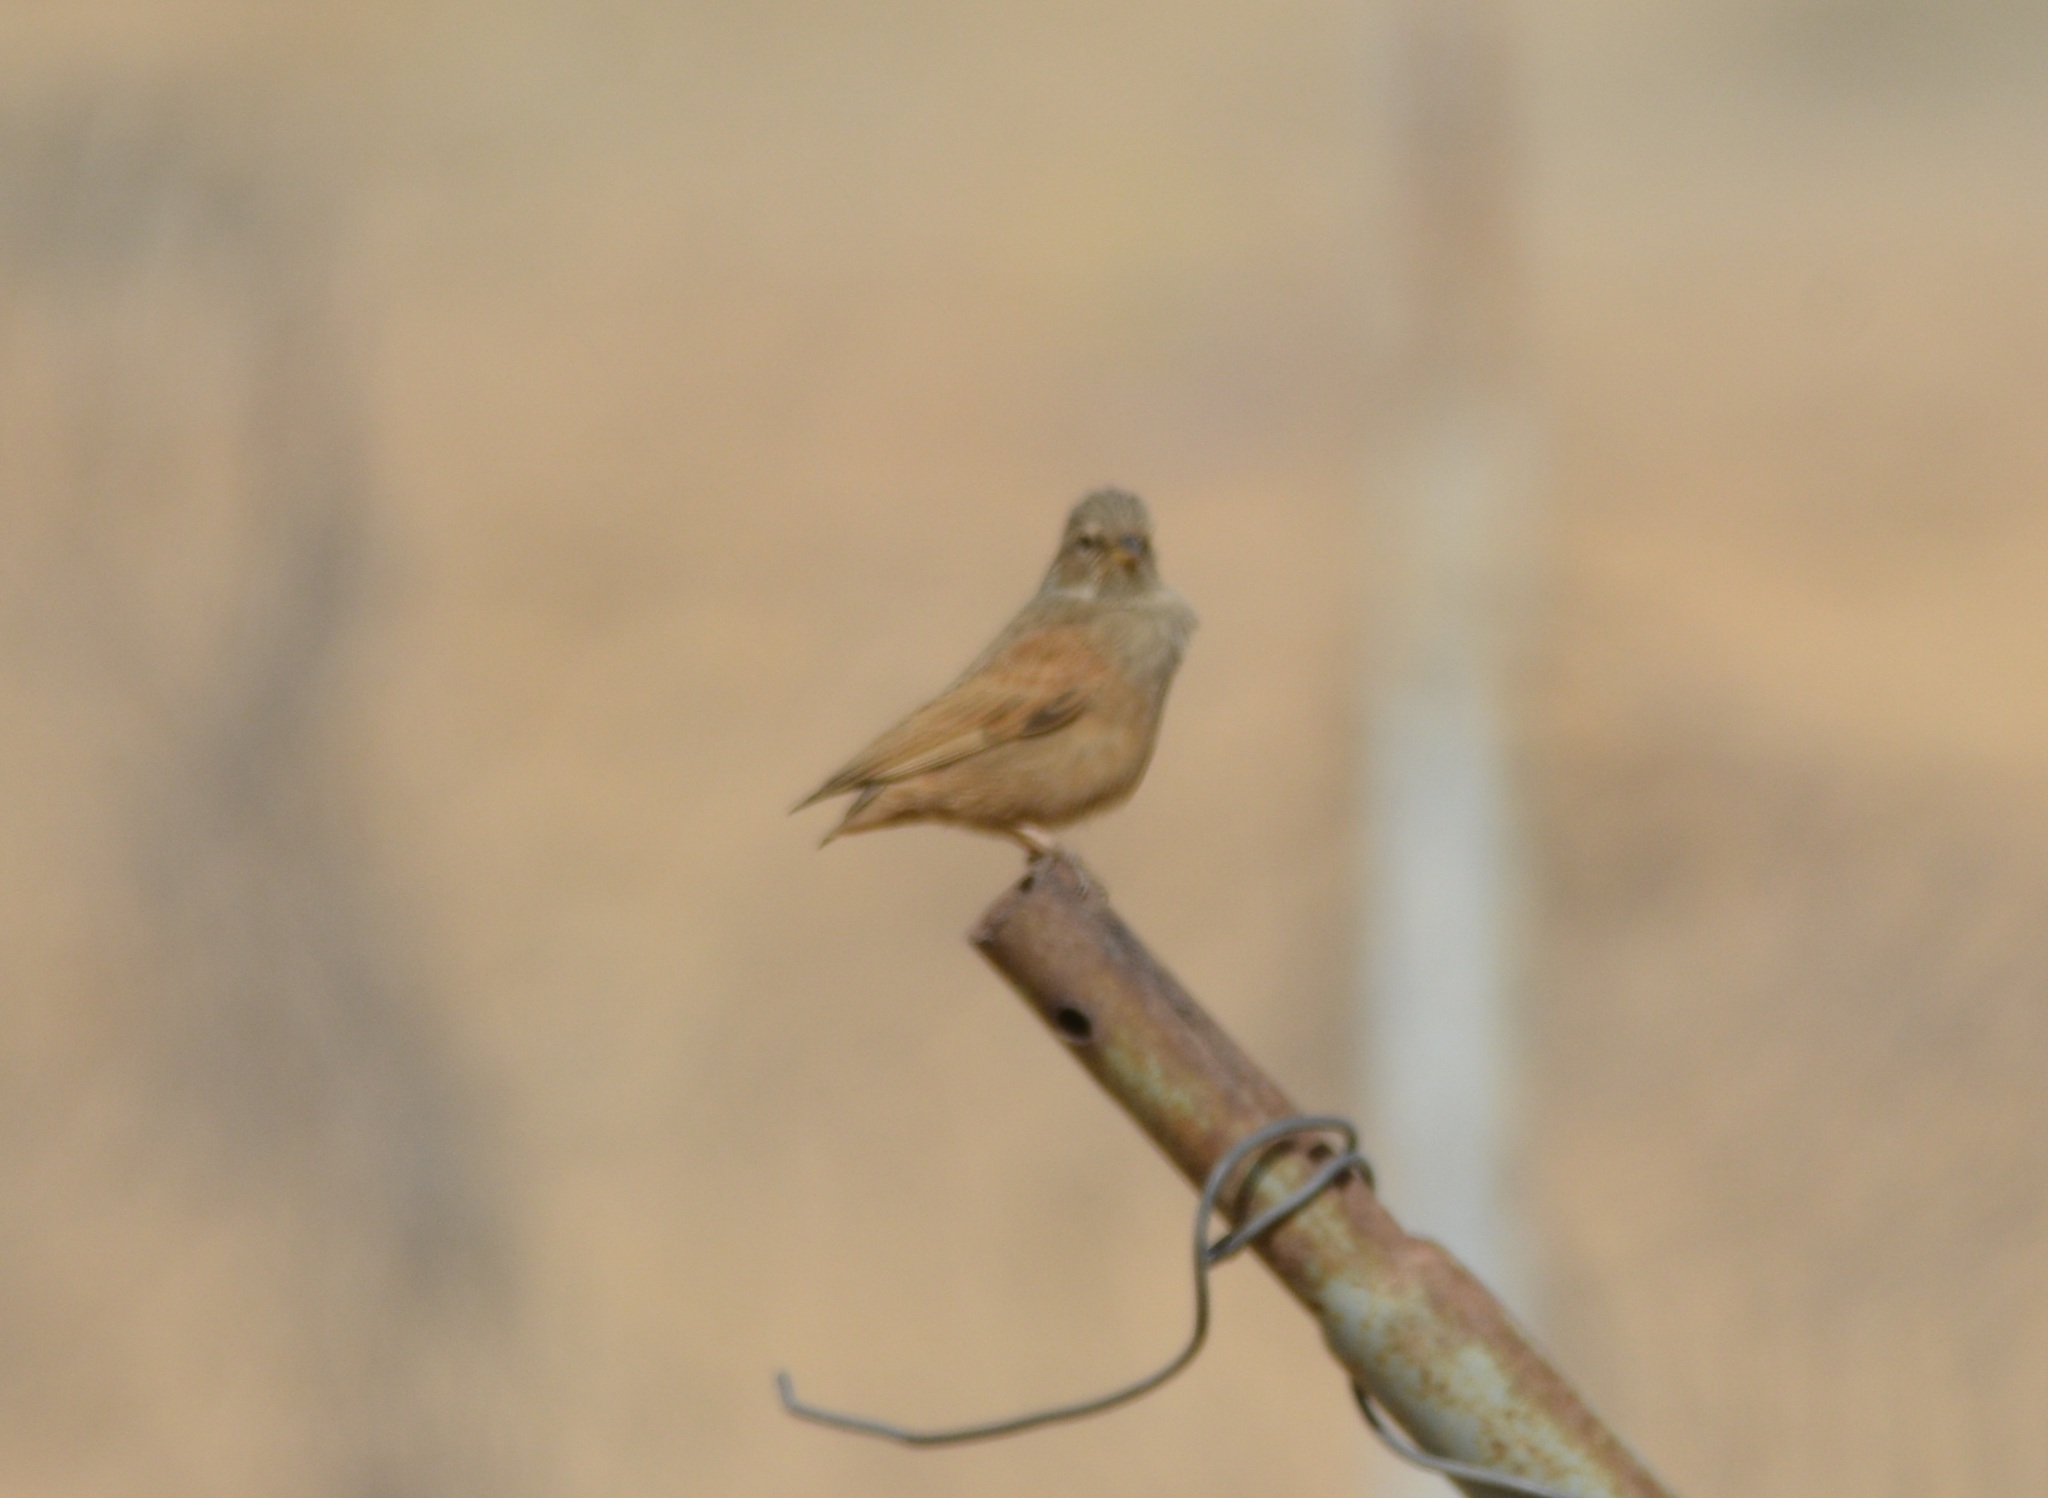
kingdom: Animalia
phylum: Chordata
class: Aves
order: Passeriformes
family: Emberizidae
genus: Emberiza
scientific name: Emberiza sahari
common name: House bunting
